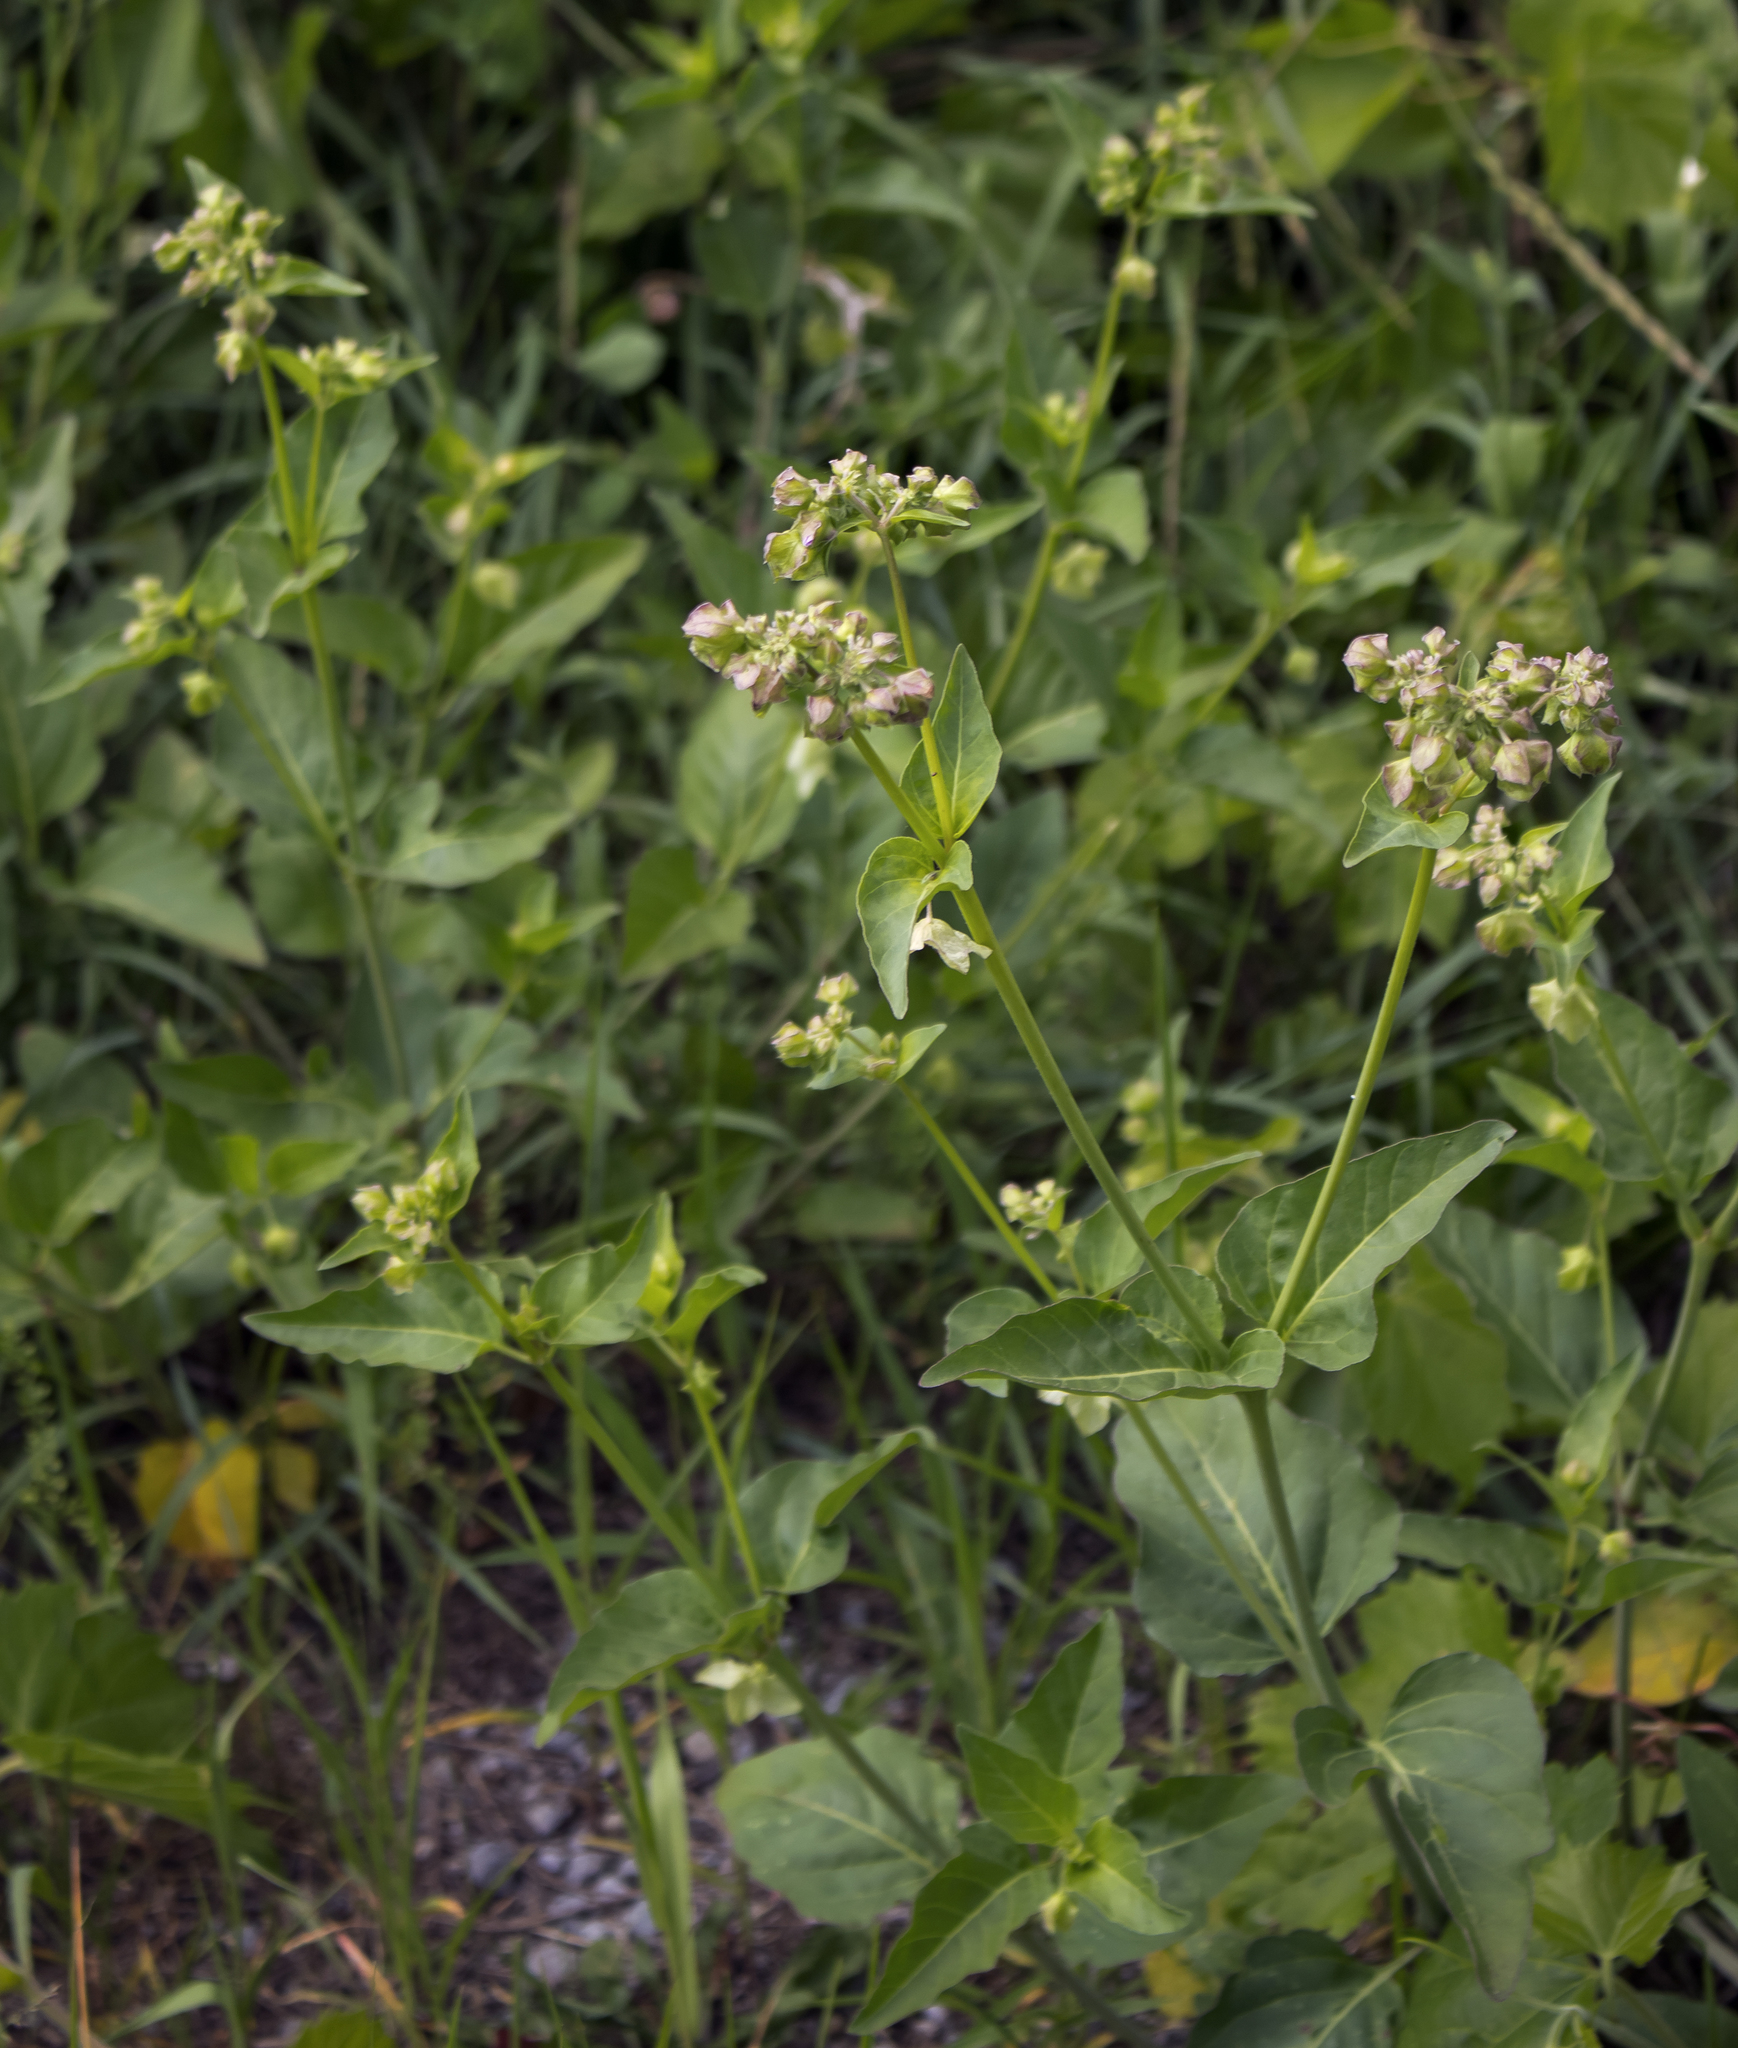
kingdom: Plantae
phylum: Tracheophyta
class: Magnoliopsida
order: Caryophyllales
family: Nyctaginaceae
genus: Mirabilis
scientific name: Mirabilis nyctaginea
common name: Umbrella wort
